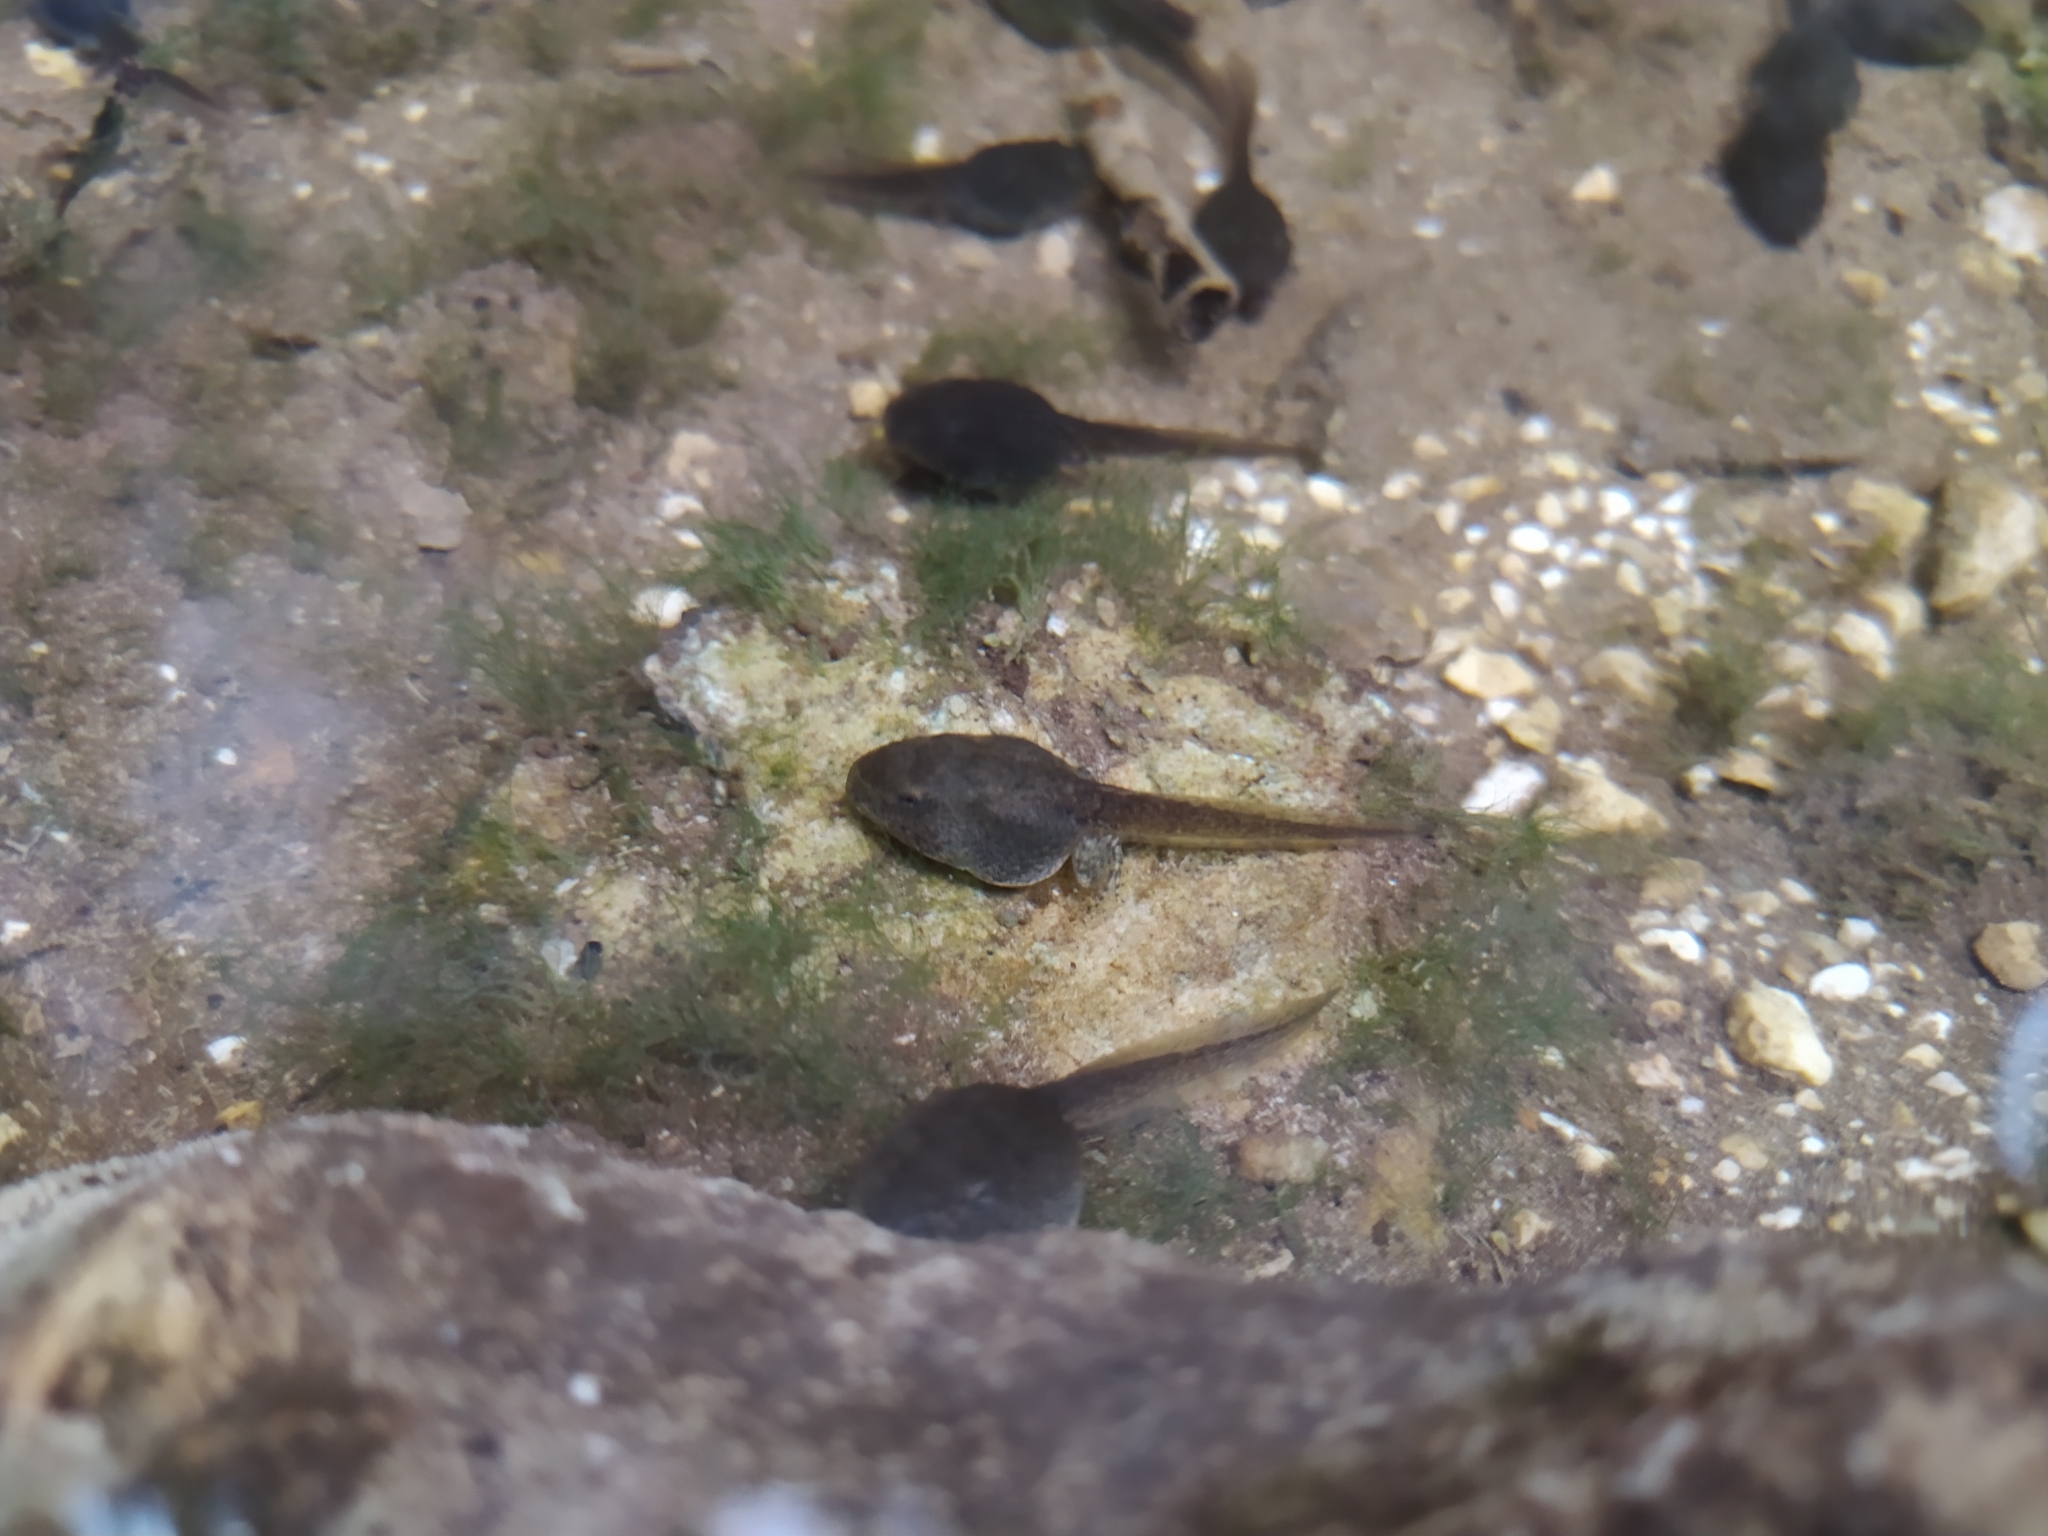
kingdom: Animalia
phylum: Chordata
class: Amphibia
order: Anura
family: Ranidae
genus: Rana
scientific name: Rana italica
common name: Italian stream frog
